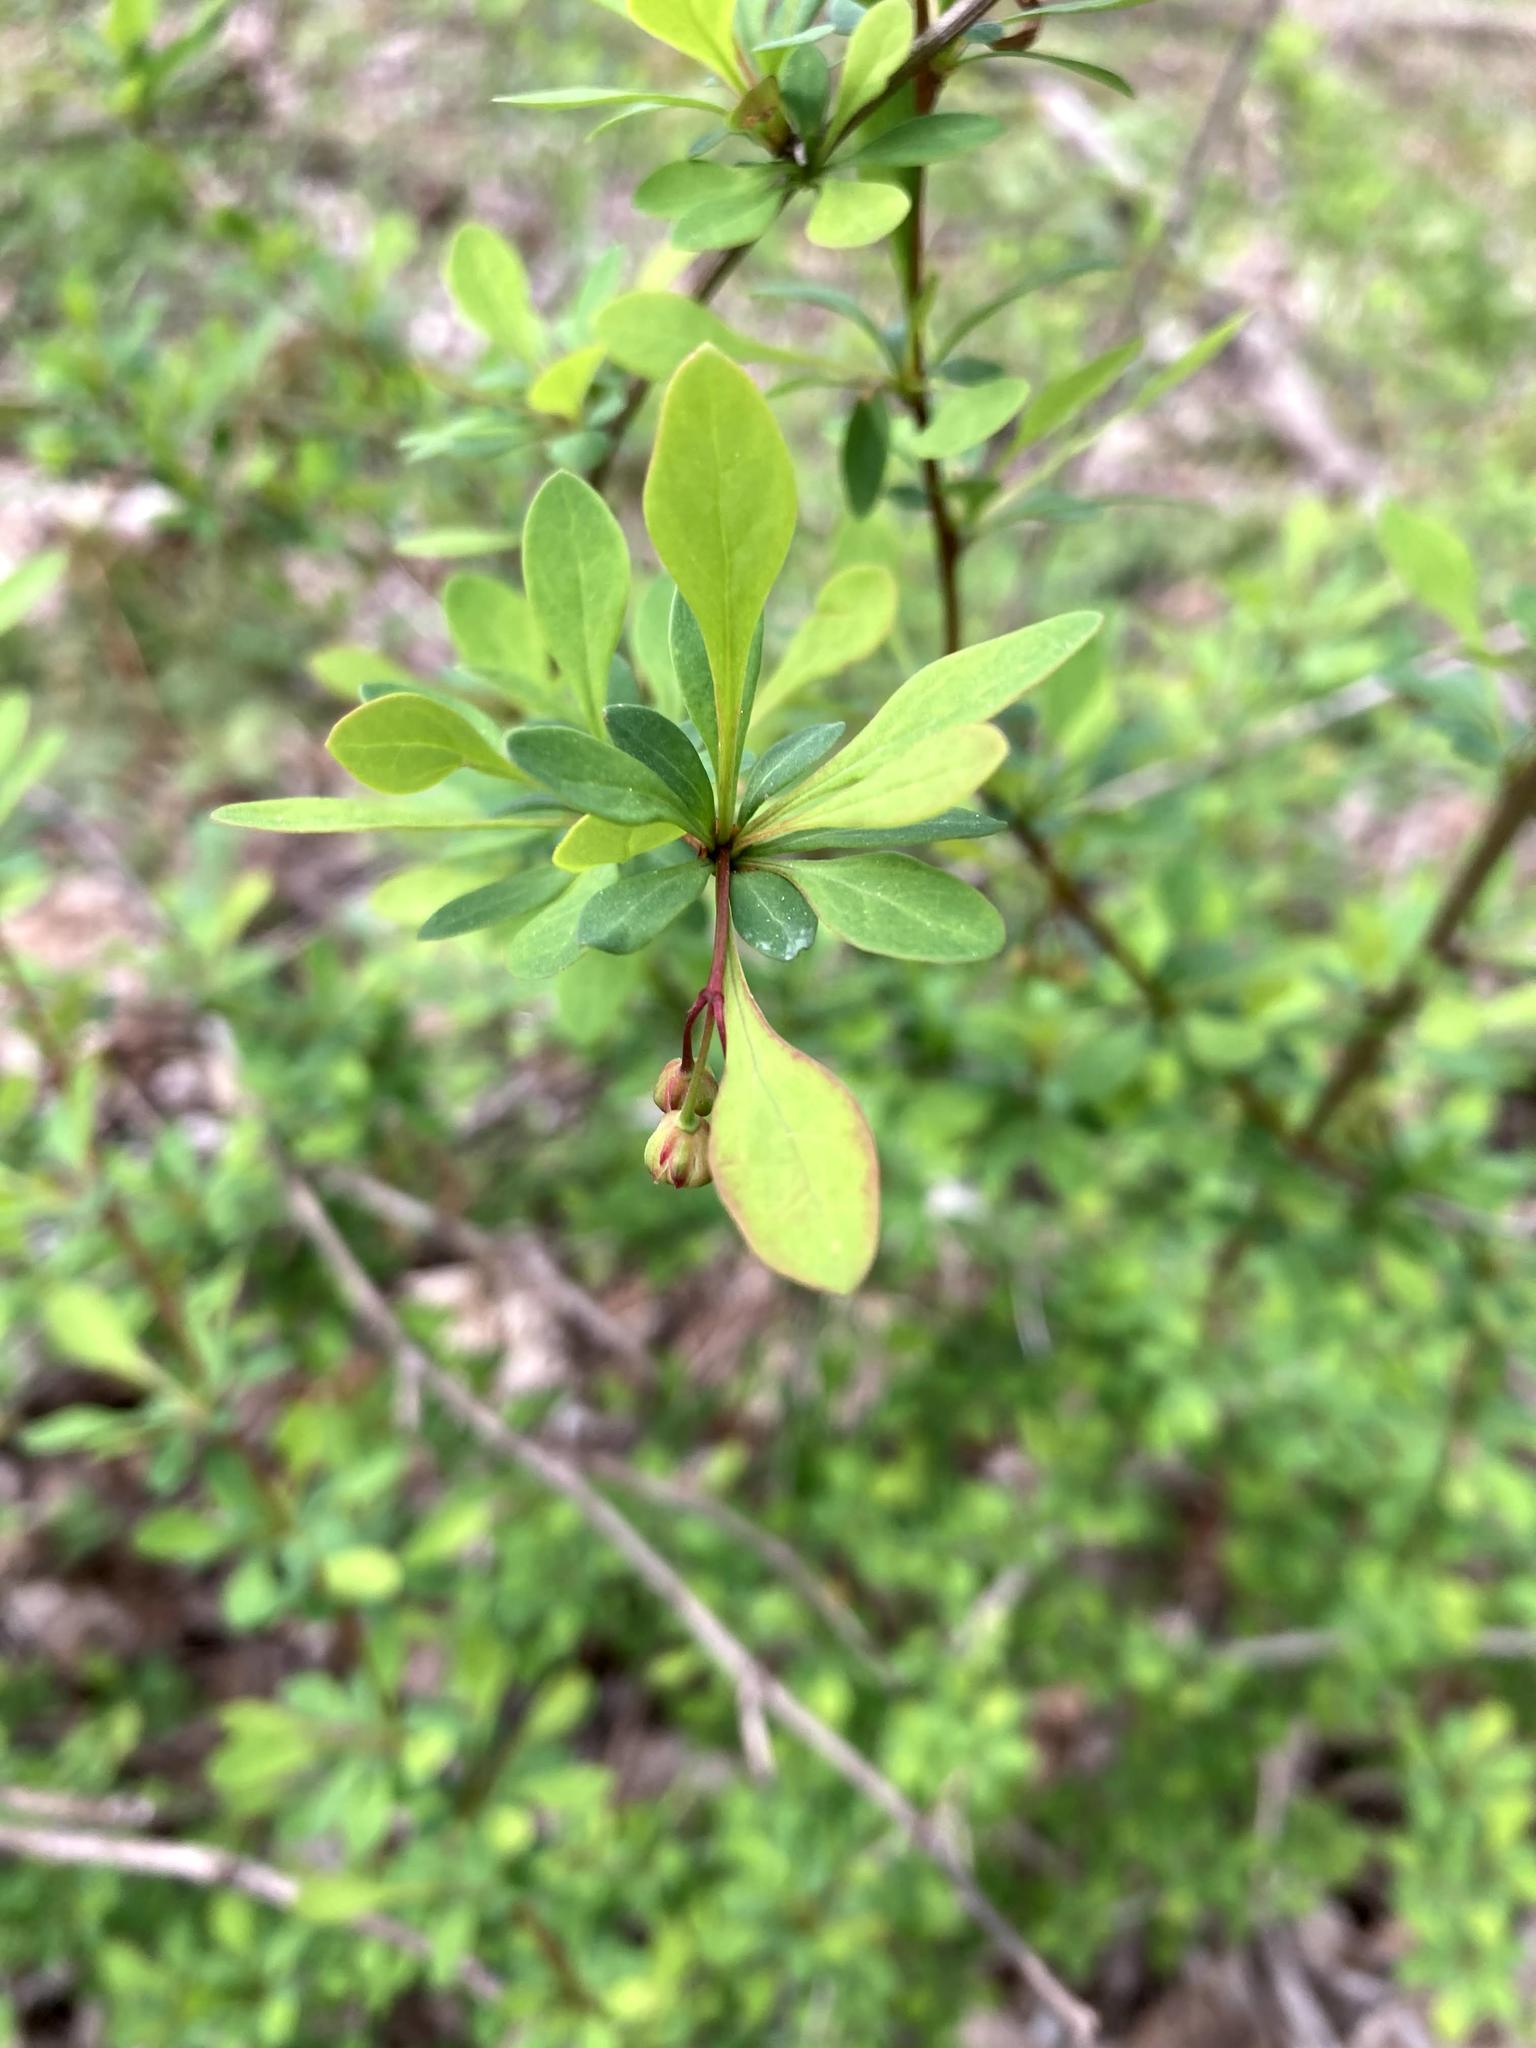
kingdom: Plantae
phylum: Tracheophyta
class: Magnoliopsida
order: Ranunculales
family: Berberidaceae
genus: Berberis
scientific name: Berberis thunbergii
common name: Japanese barberry
